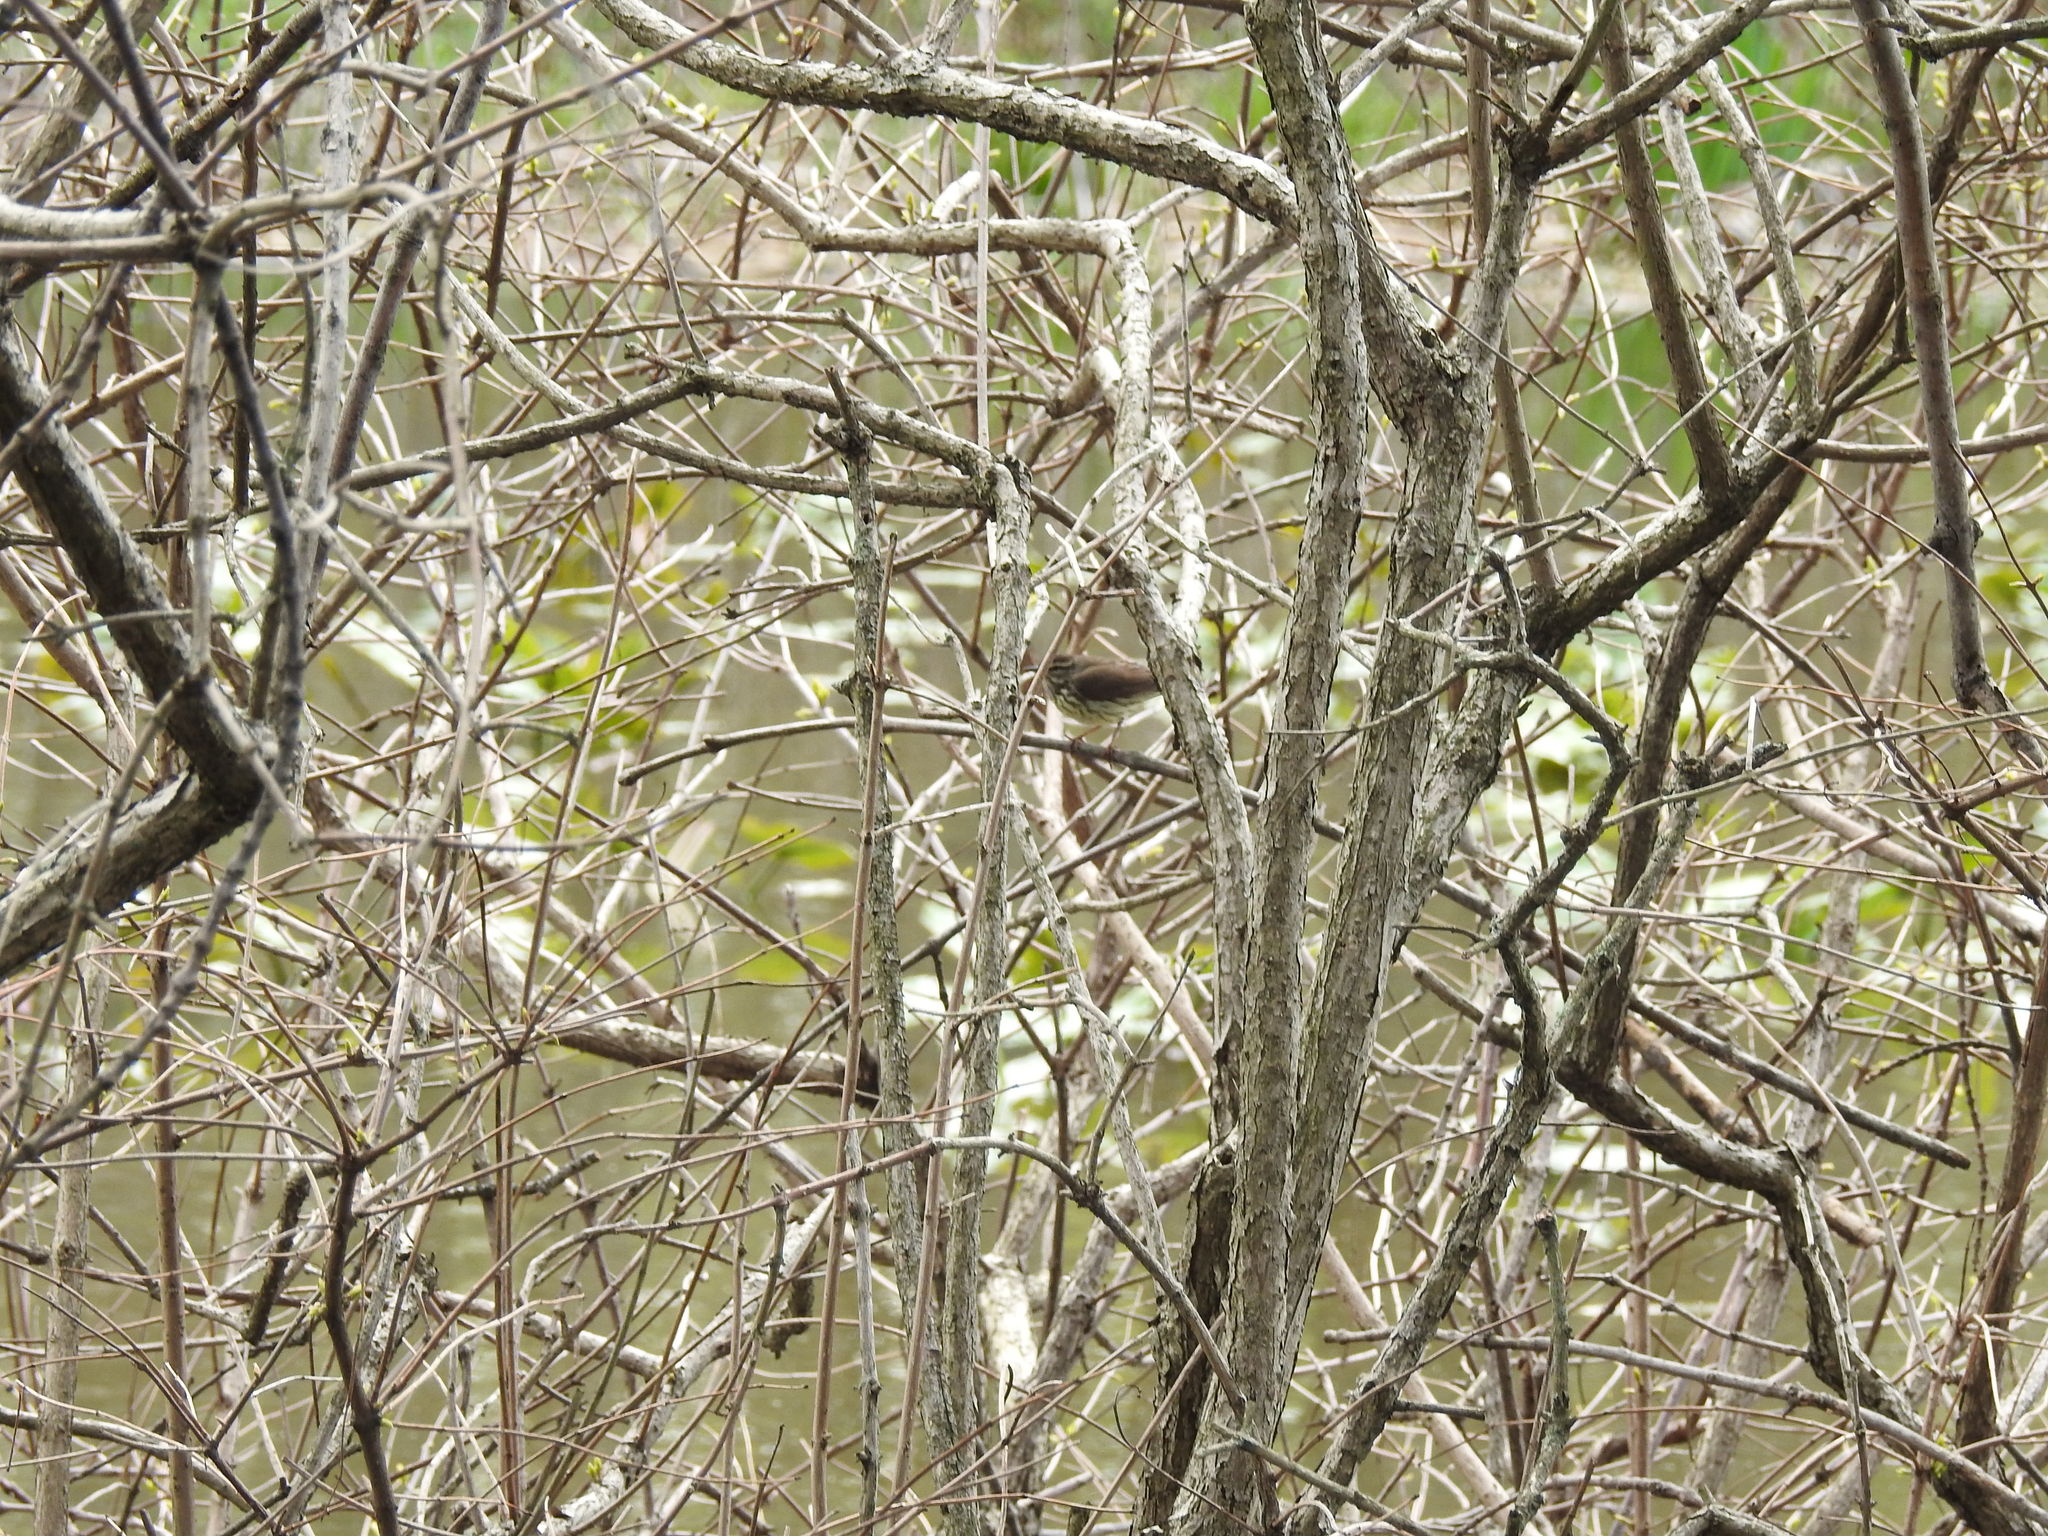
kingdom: Animalia
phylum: Chordata
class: Aves
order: Passeriformes
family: Parulidae
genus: Parkesia
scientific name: Parkesia noveboracensis
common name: Northern waterthrush
